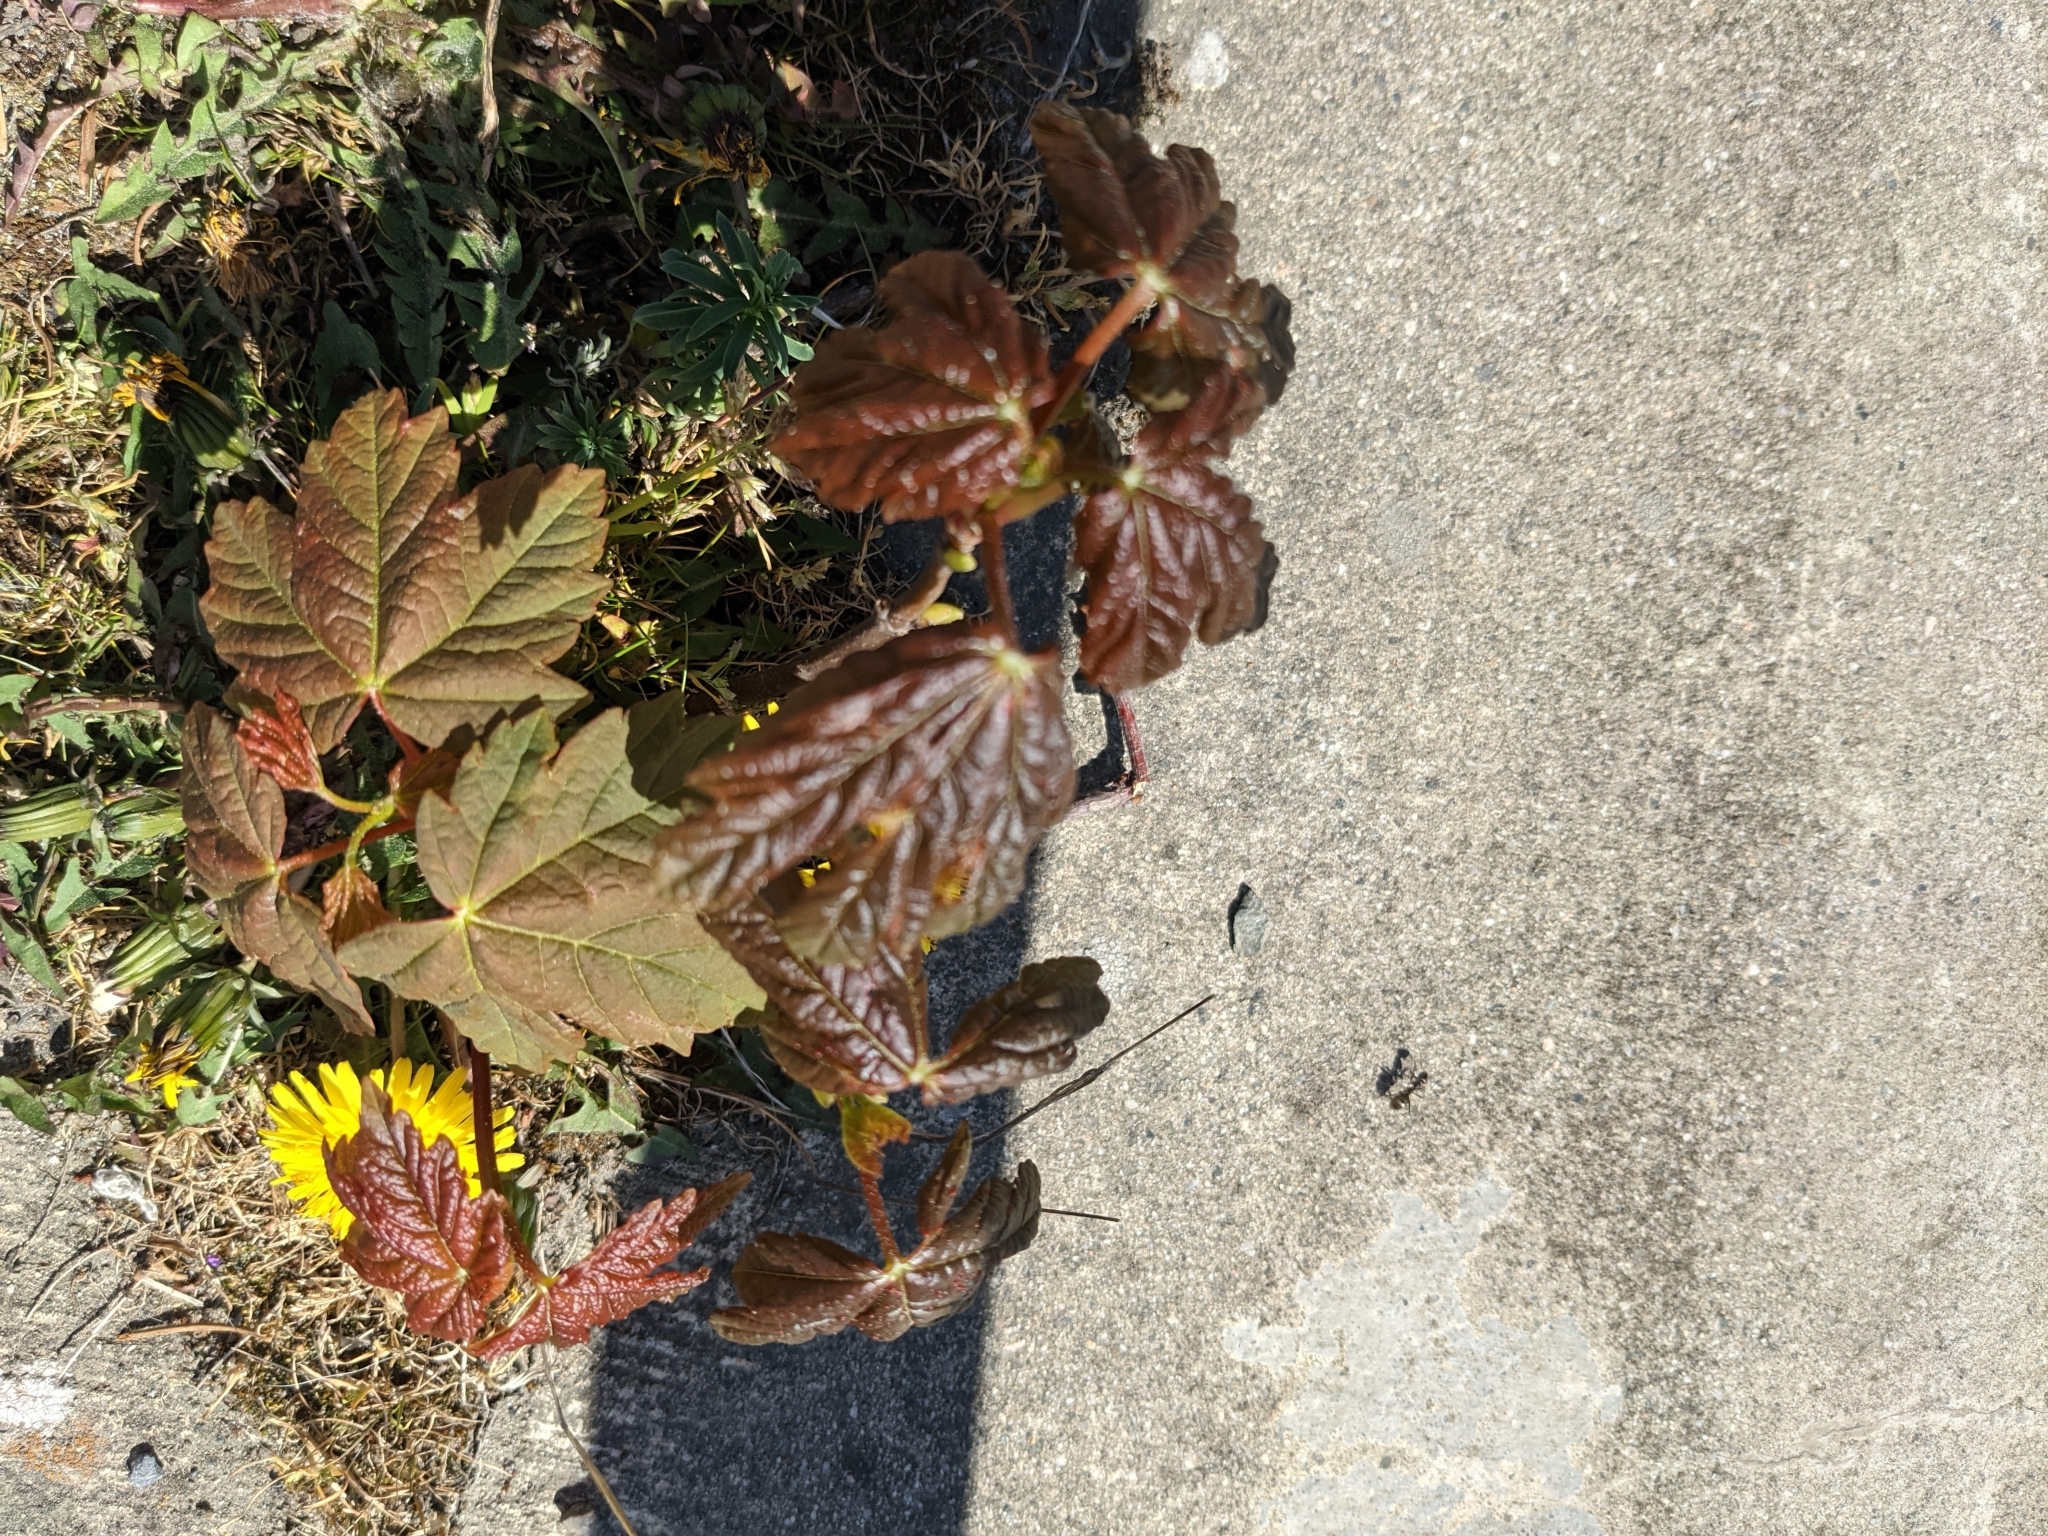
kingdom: Plantae
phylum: Tracheophyta
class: Magnoliopsida
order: Sapindales
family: Sapindaceae
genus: Acer
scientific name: Acer pseudoplatanus
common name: Sycamore
